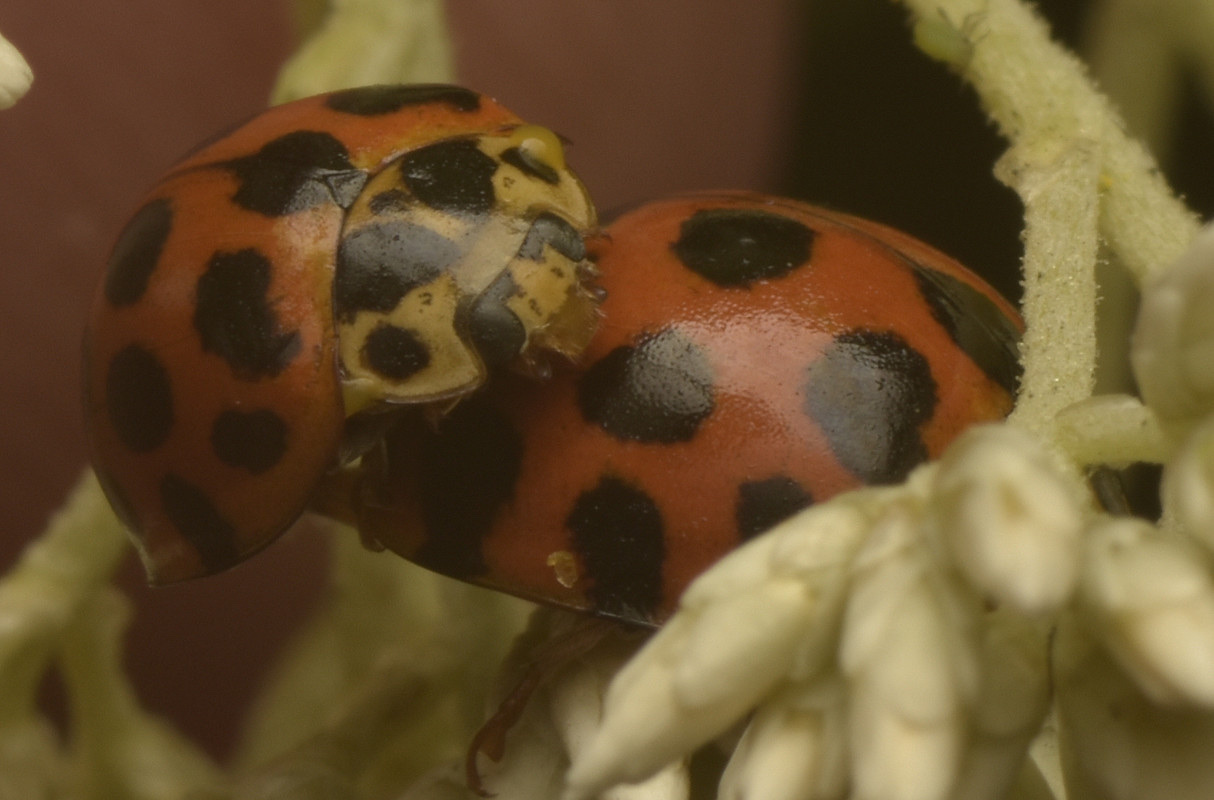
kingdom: Animalia
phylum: Arthropoda
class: Insecta
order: Coleoptera
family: Coccinellidae
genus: Harmonia
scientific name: Harmonia conformis
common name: Common spotted ladybird beetle
